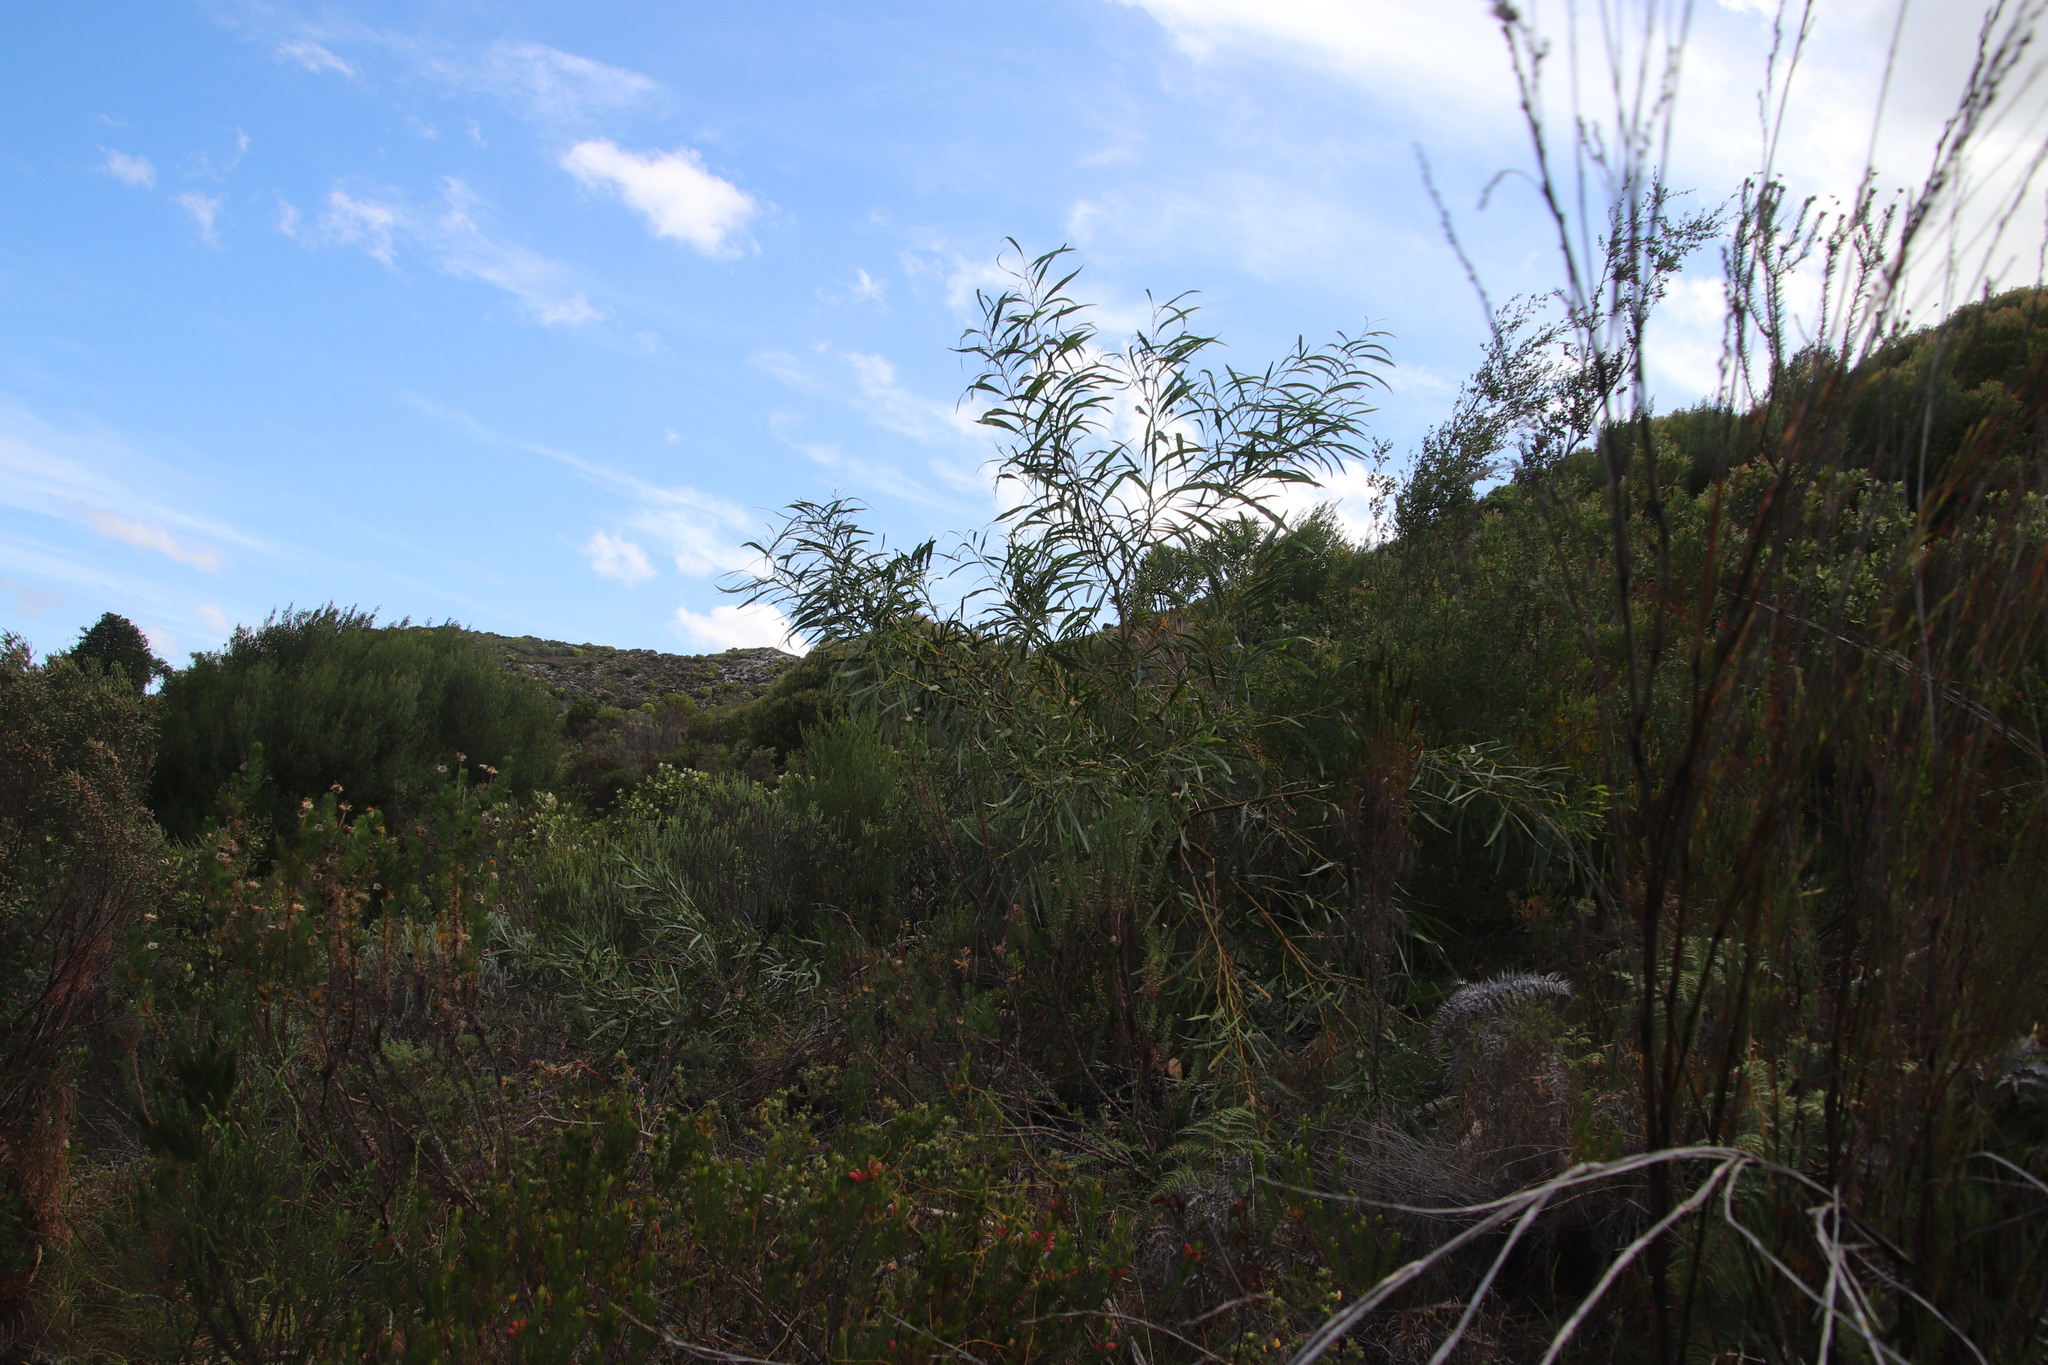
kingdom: Plantae
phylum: Tracheophyta
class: Magnoliopsida
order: Fabales
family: Fabaceae
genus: Acacia
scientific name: Acacia saligna
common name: Orange wattle
